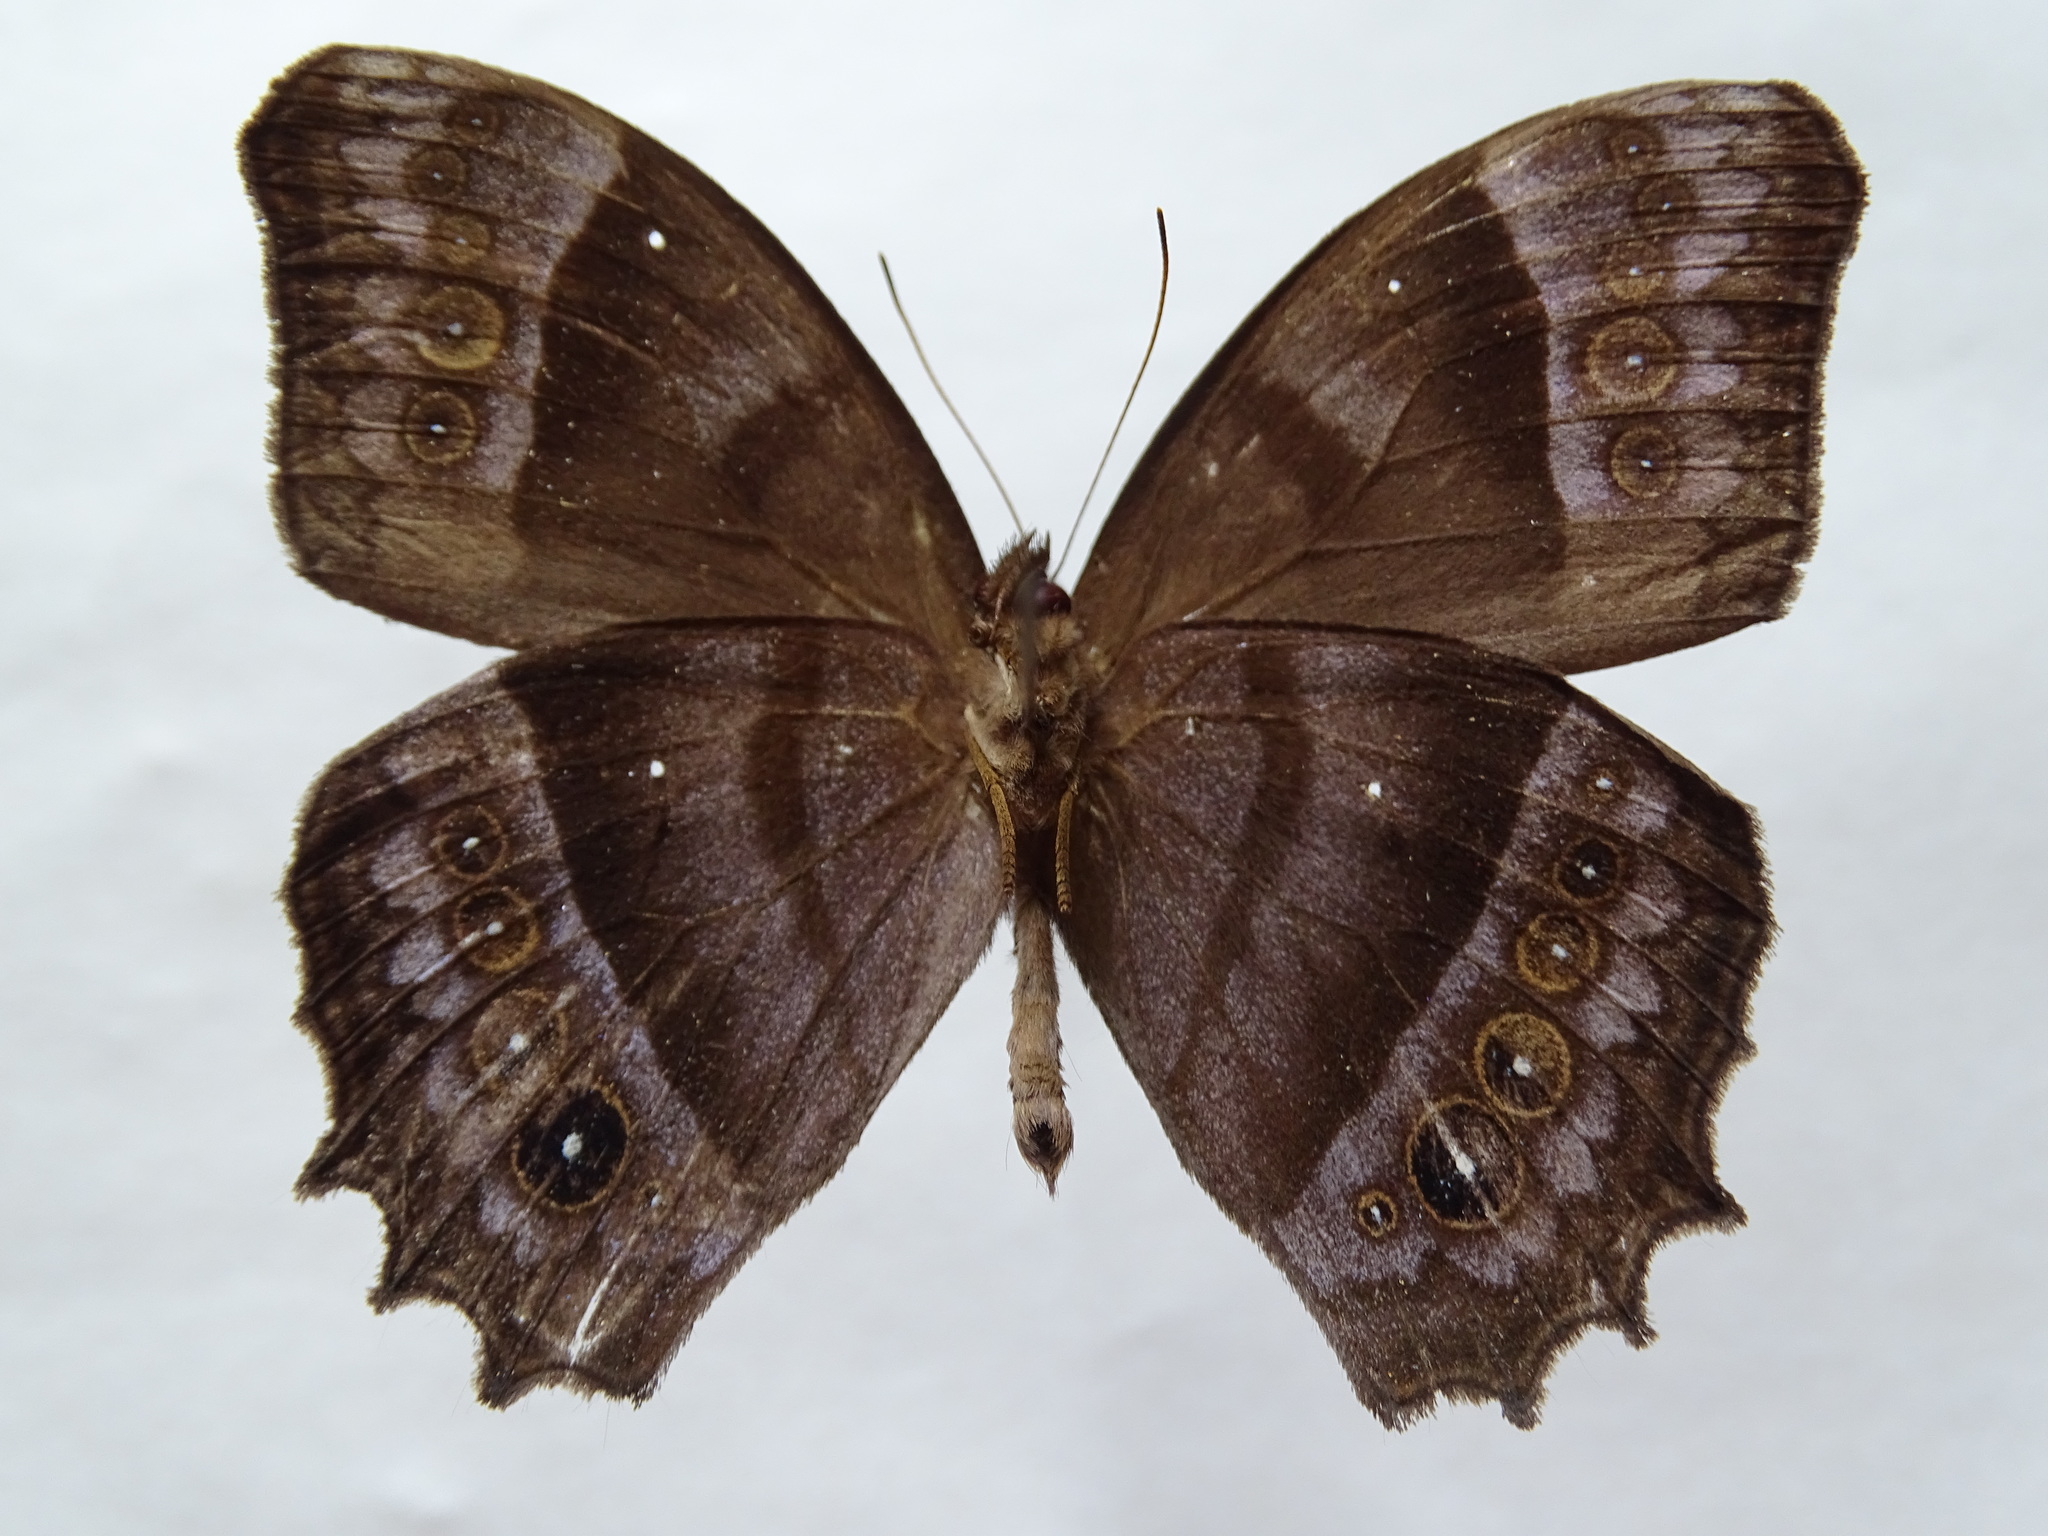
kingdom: Animalia
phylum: Arthropoda
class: Insecta
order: Lepidoptera
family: Nymphalidae
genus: Taygetis
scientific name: Taygetis inconspicua
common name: Inconspicuous satyr
